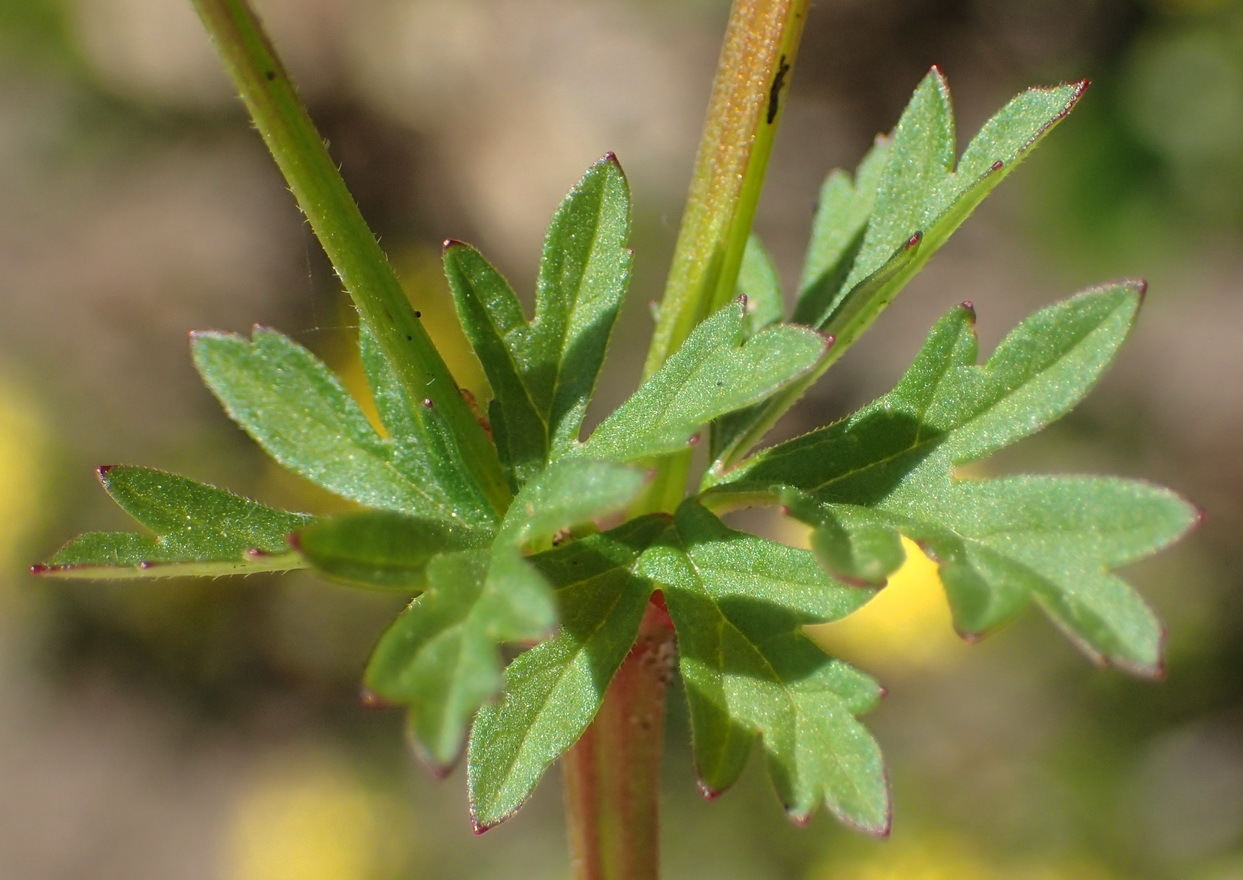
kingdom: Plantae
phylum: Tracheophyta
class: Magnoliopsida
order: Geraniales
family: Geraniaceae
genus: Pelargonium
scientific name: Pelargonium grossularioides
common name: Gooseberry geranium
